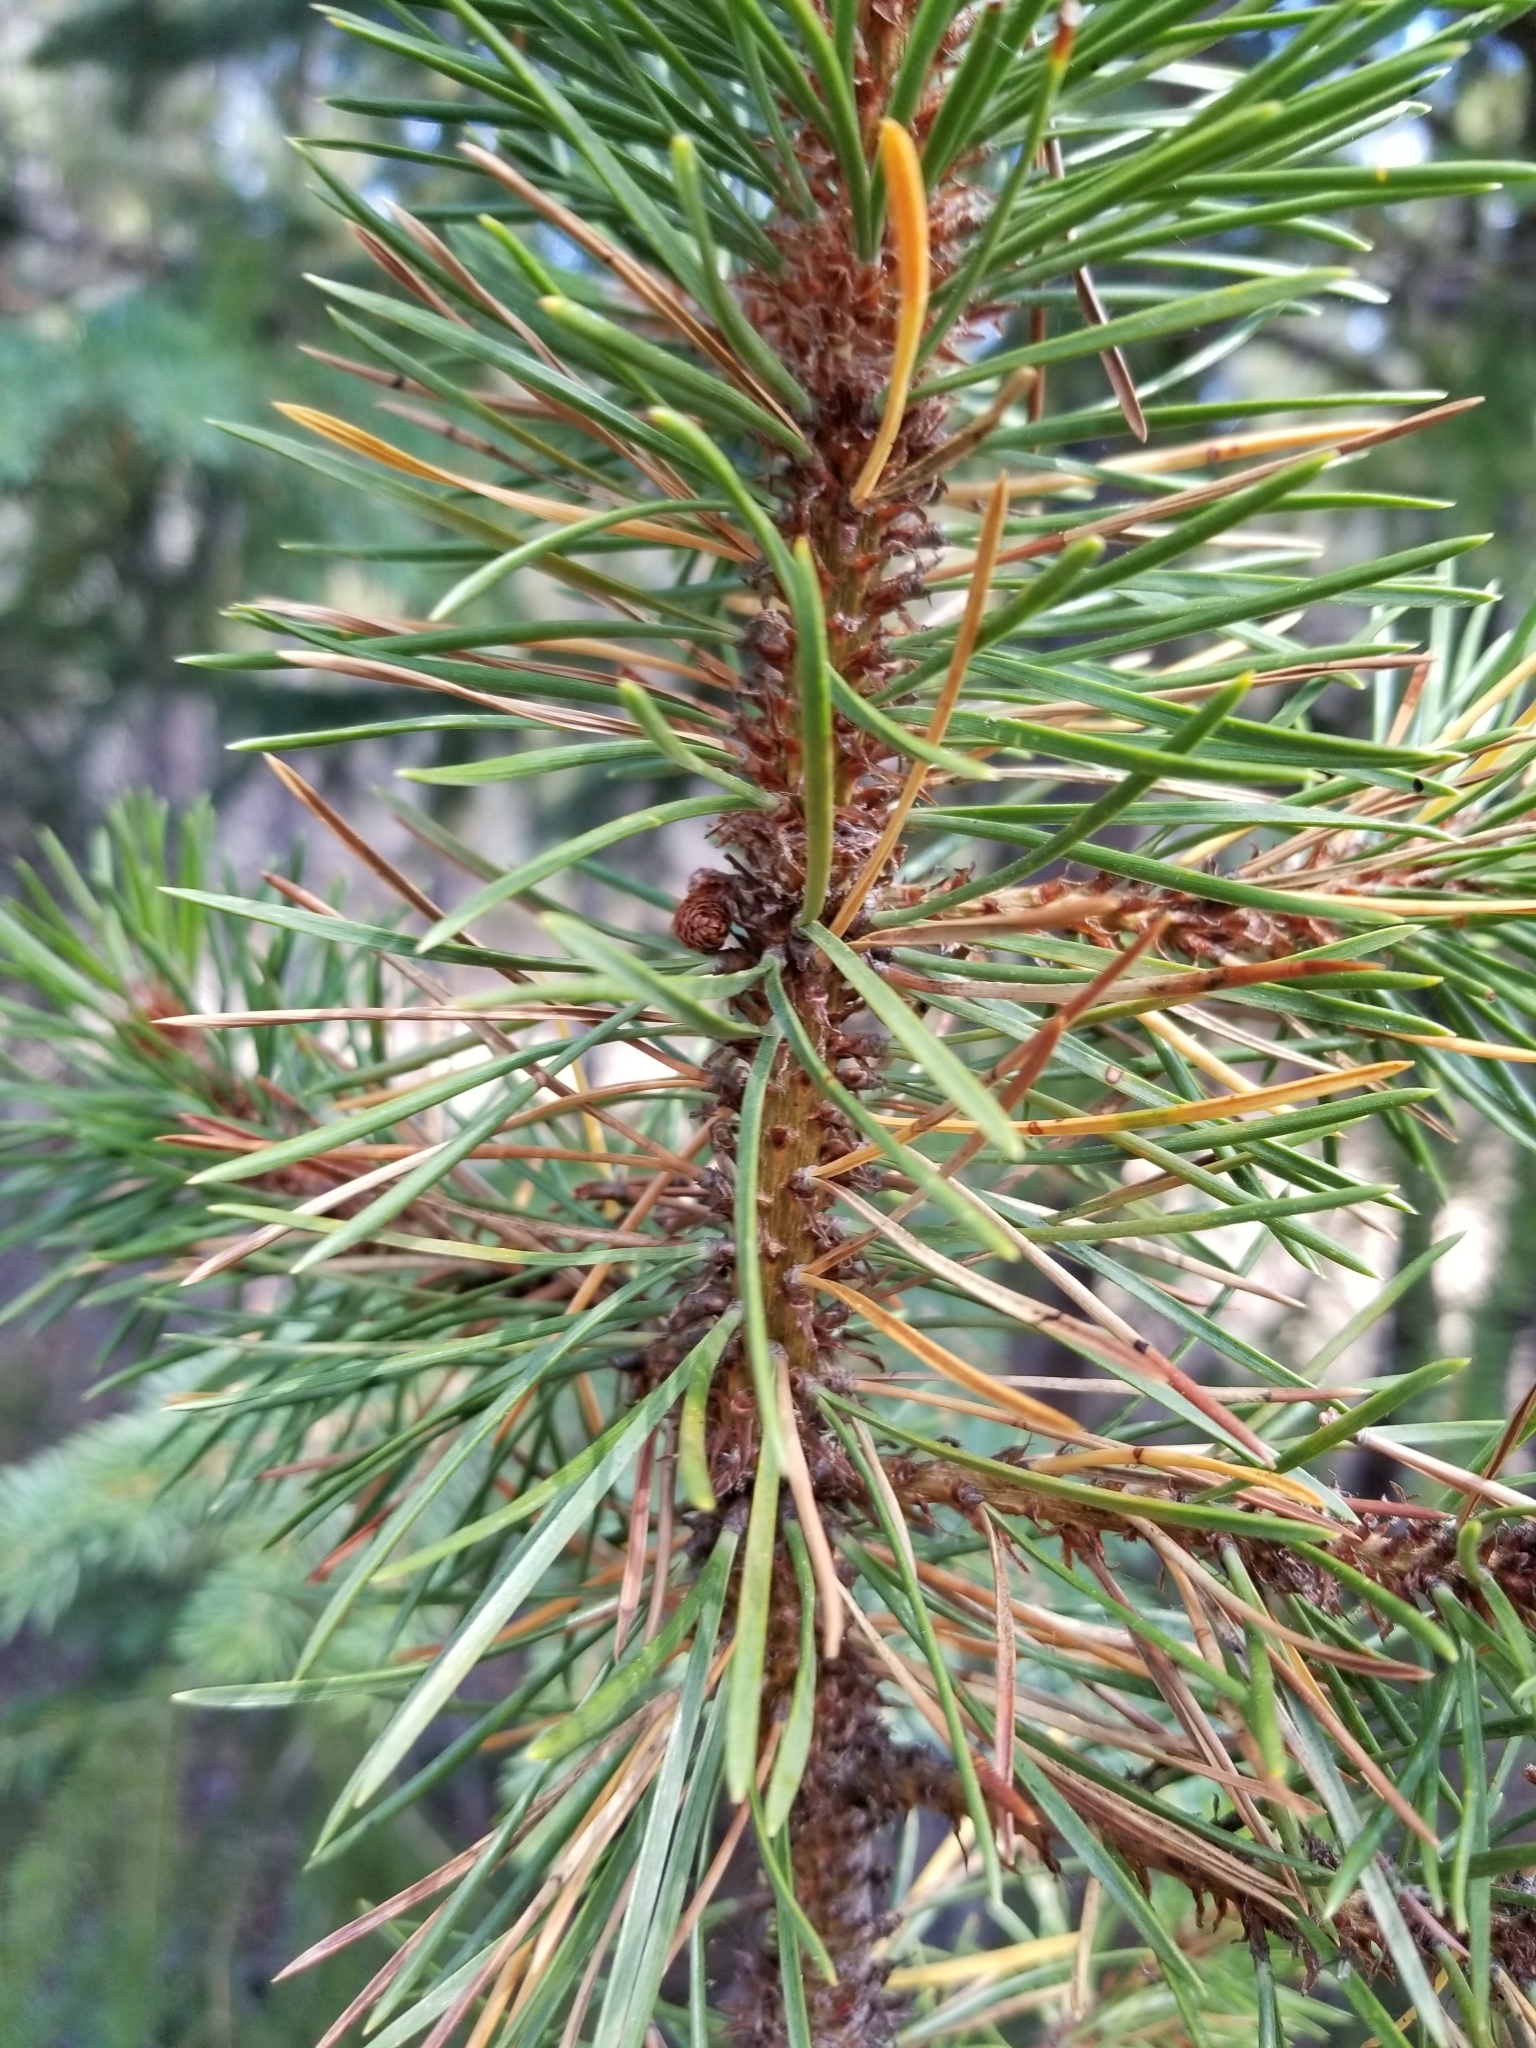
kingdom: Plantae
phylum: Tracheophyta
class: Pinopsida
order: Pinales
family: Pinaceae
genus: Pinus
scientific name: Pinus contorta
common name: Lodgepole pine
